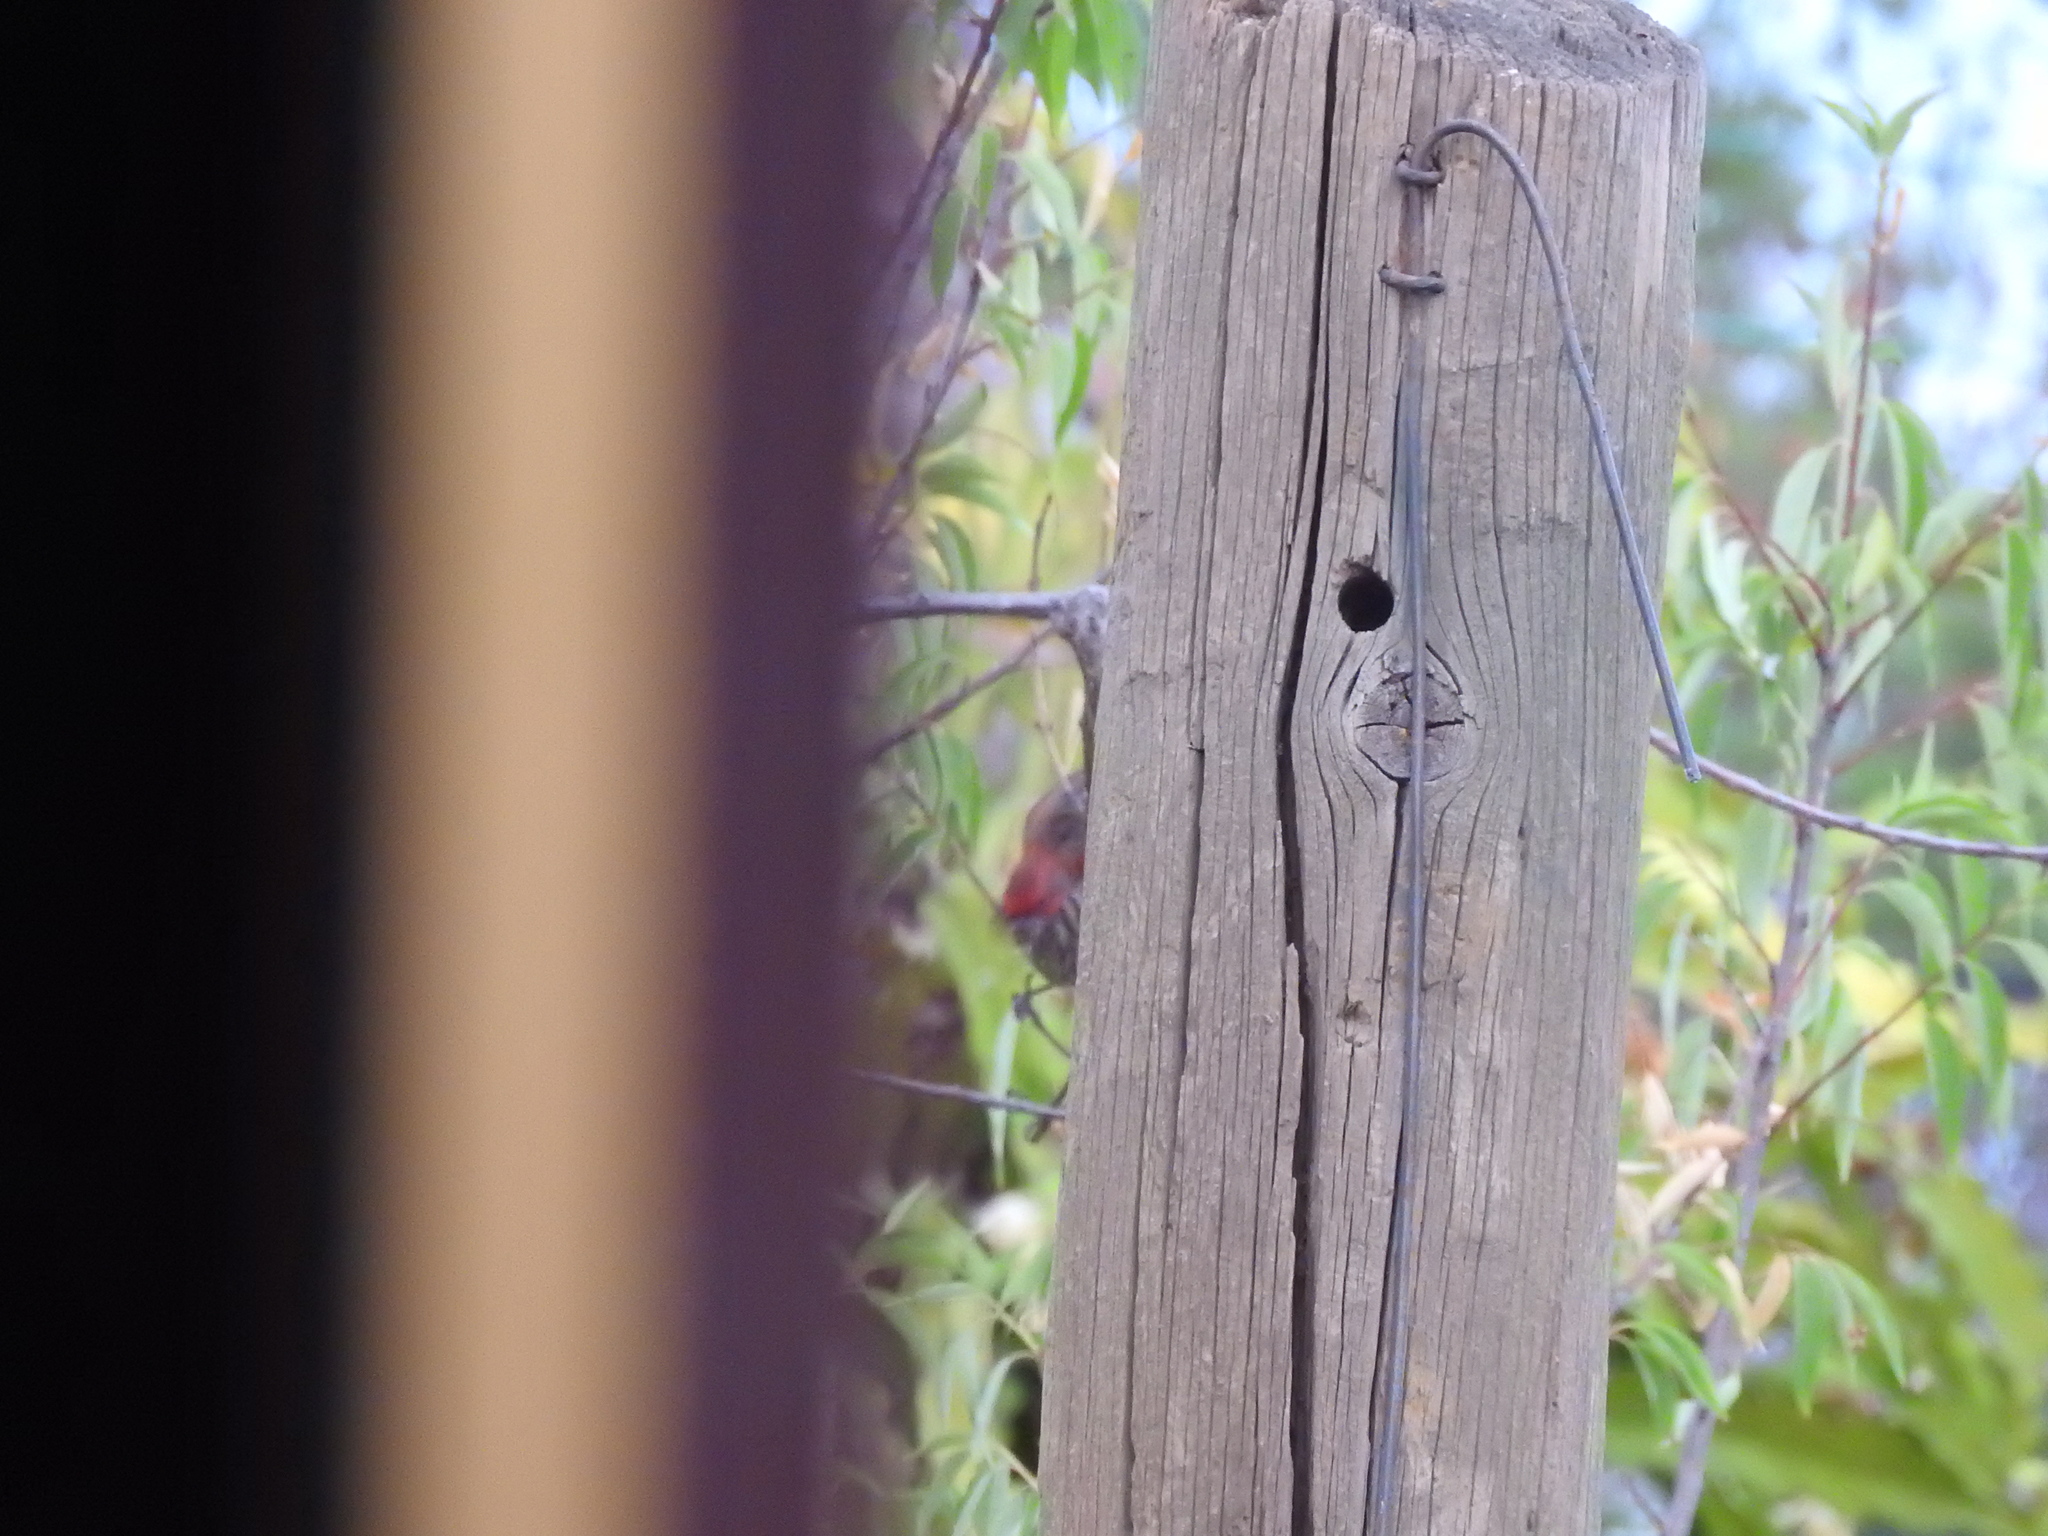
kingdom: Animalia
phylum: Chordata
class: Aves
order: Passeriformes
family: Fringillidae
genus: Haemorhous
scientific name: Haemorhous mexicanus
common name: House finch
